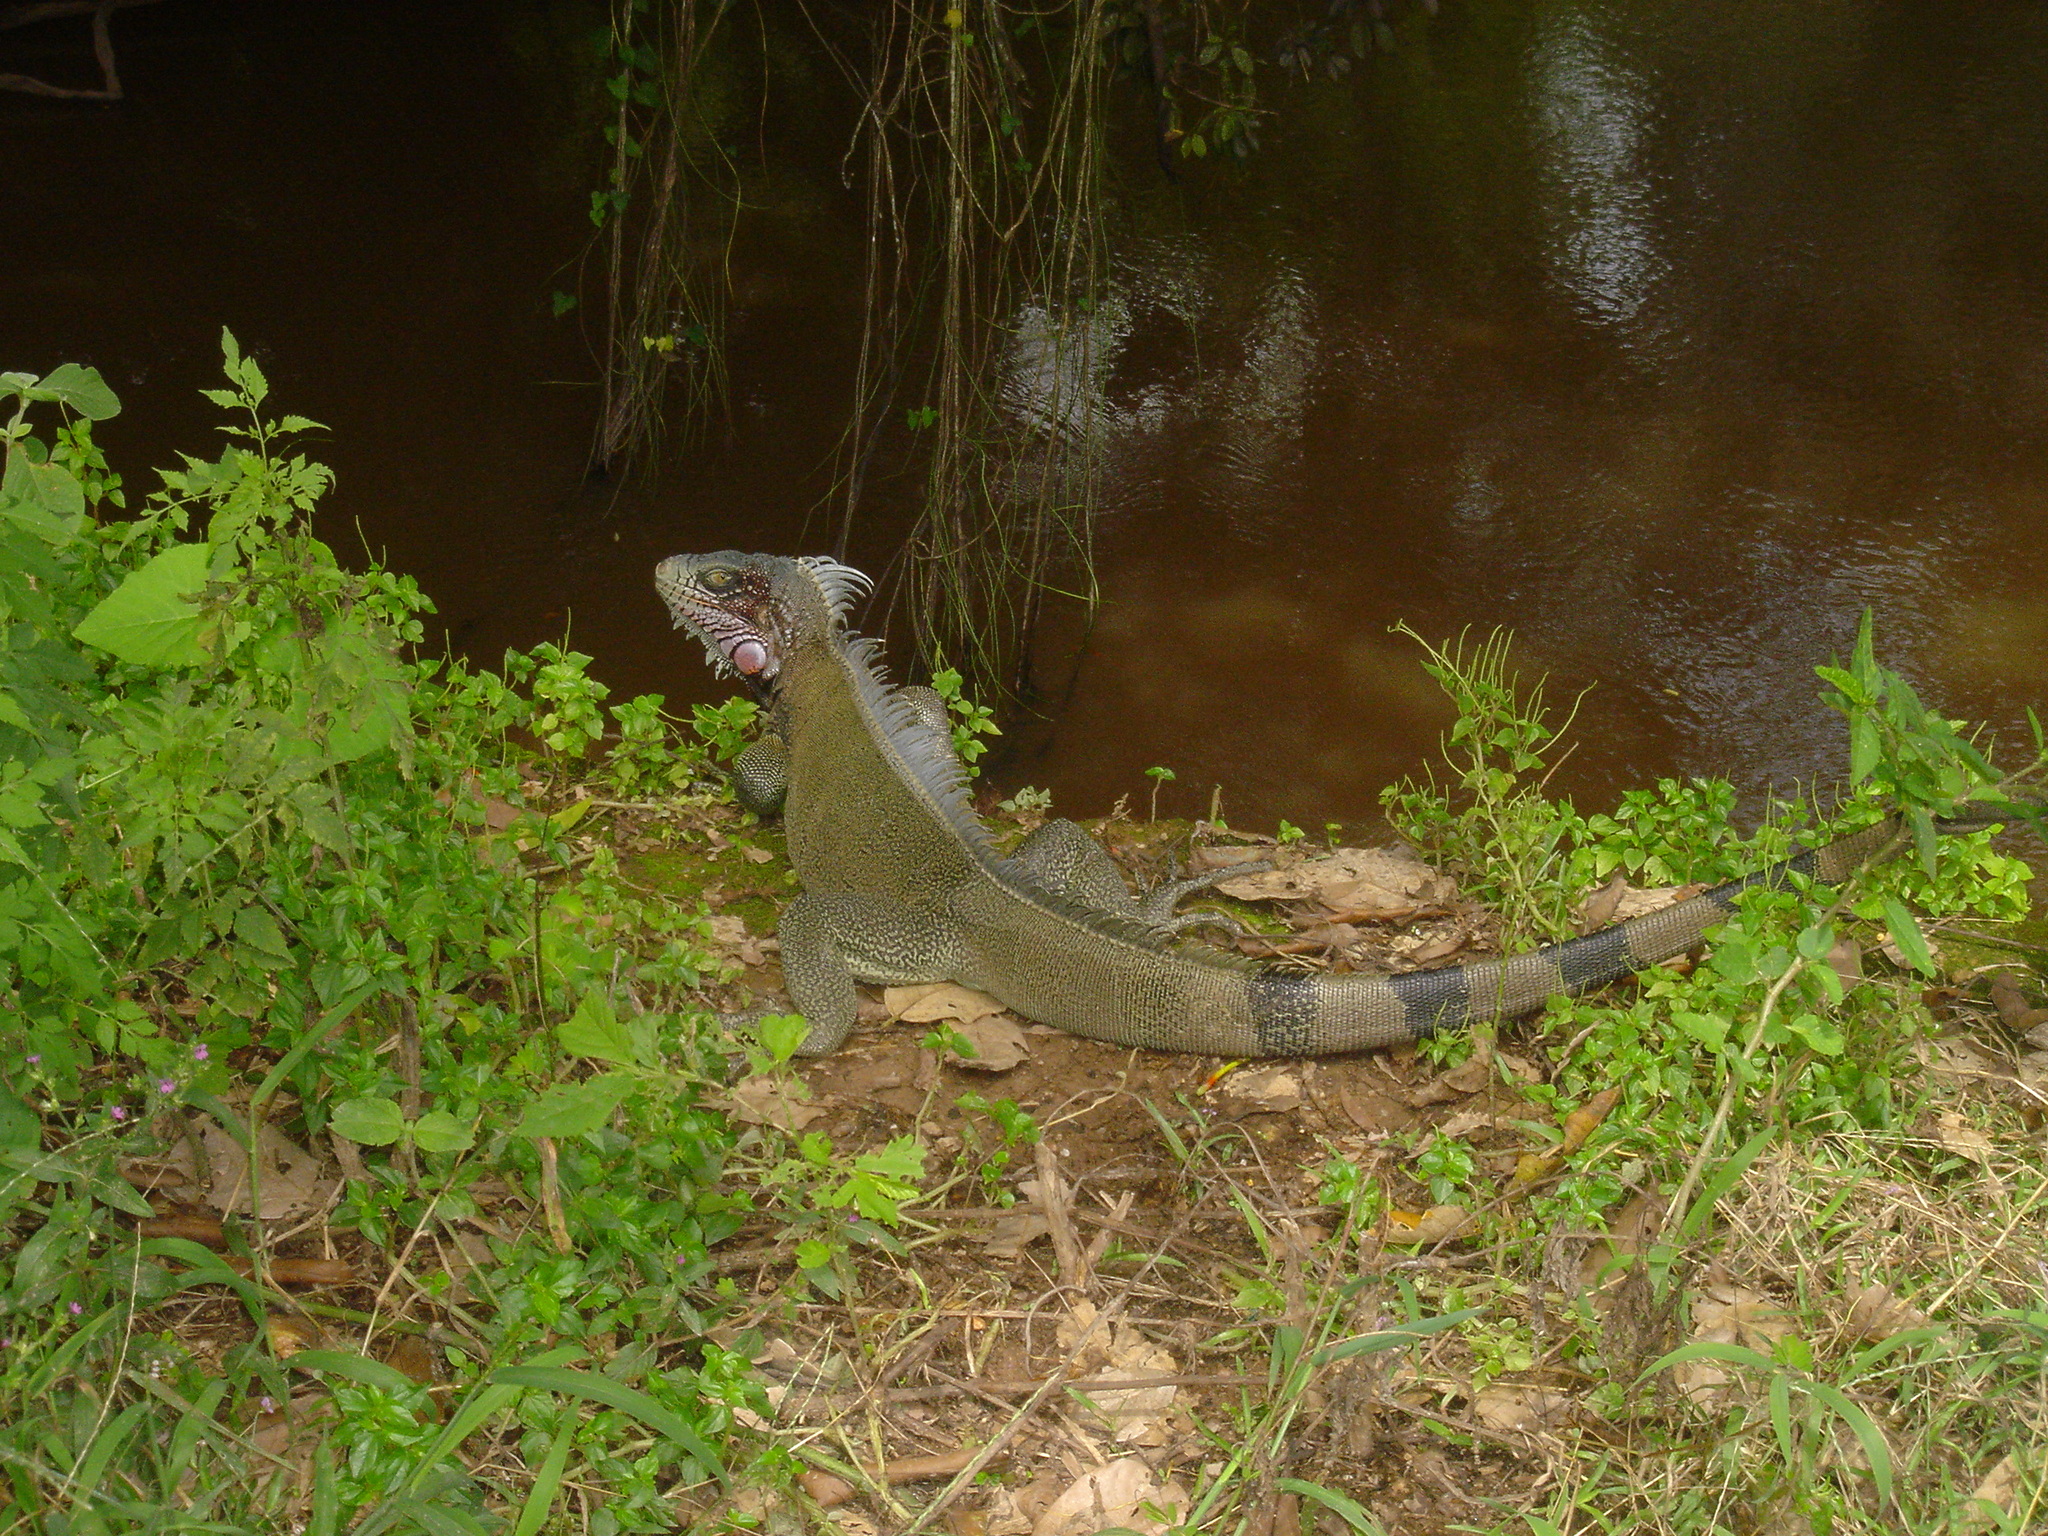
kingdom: Animalia
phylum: Chordata
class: Squamata
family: Iguanidae
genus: Iguana
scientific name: Iguana iguana
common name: Green iguana
